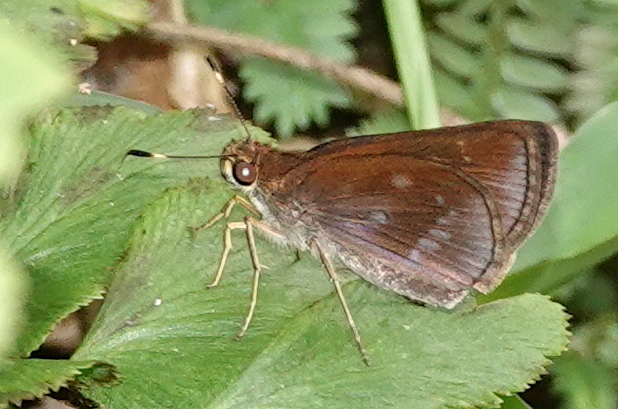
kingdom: Animalia
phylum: Arthropoda
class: Insecta
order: Lepidoptera
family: Hesperiidae
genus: Lerema
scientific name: Lerema
